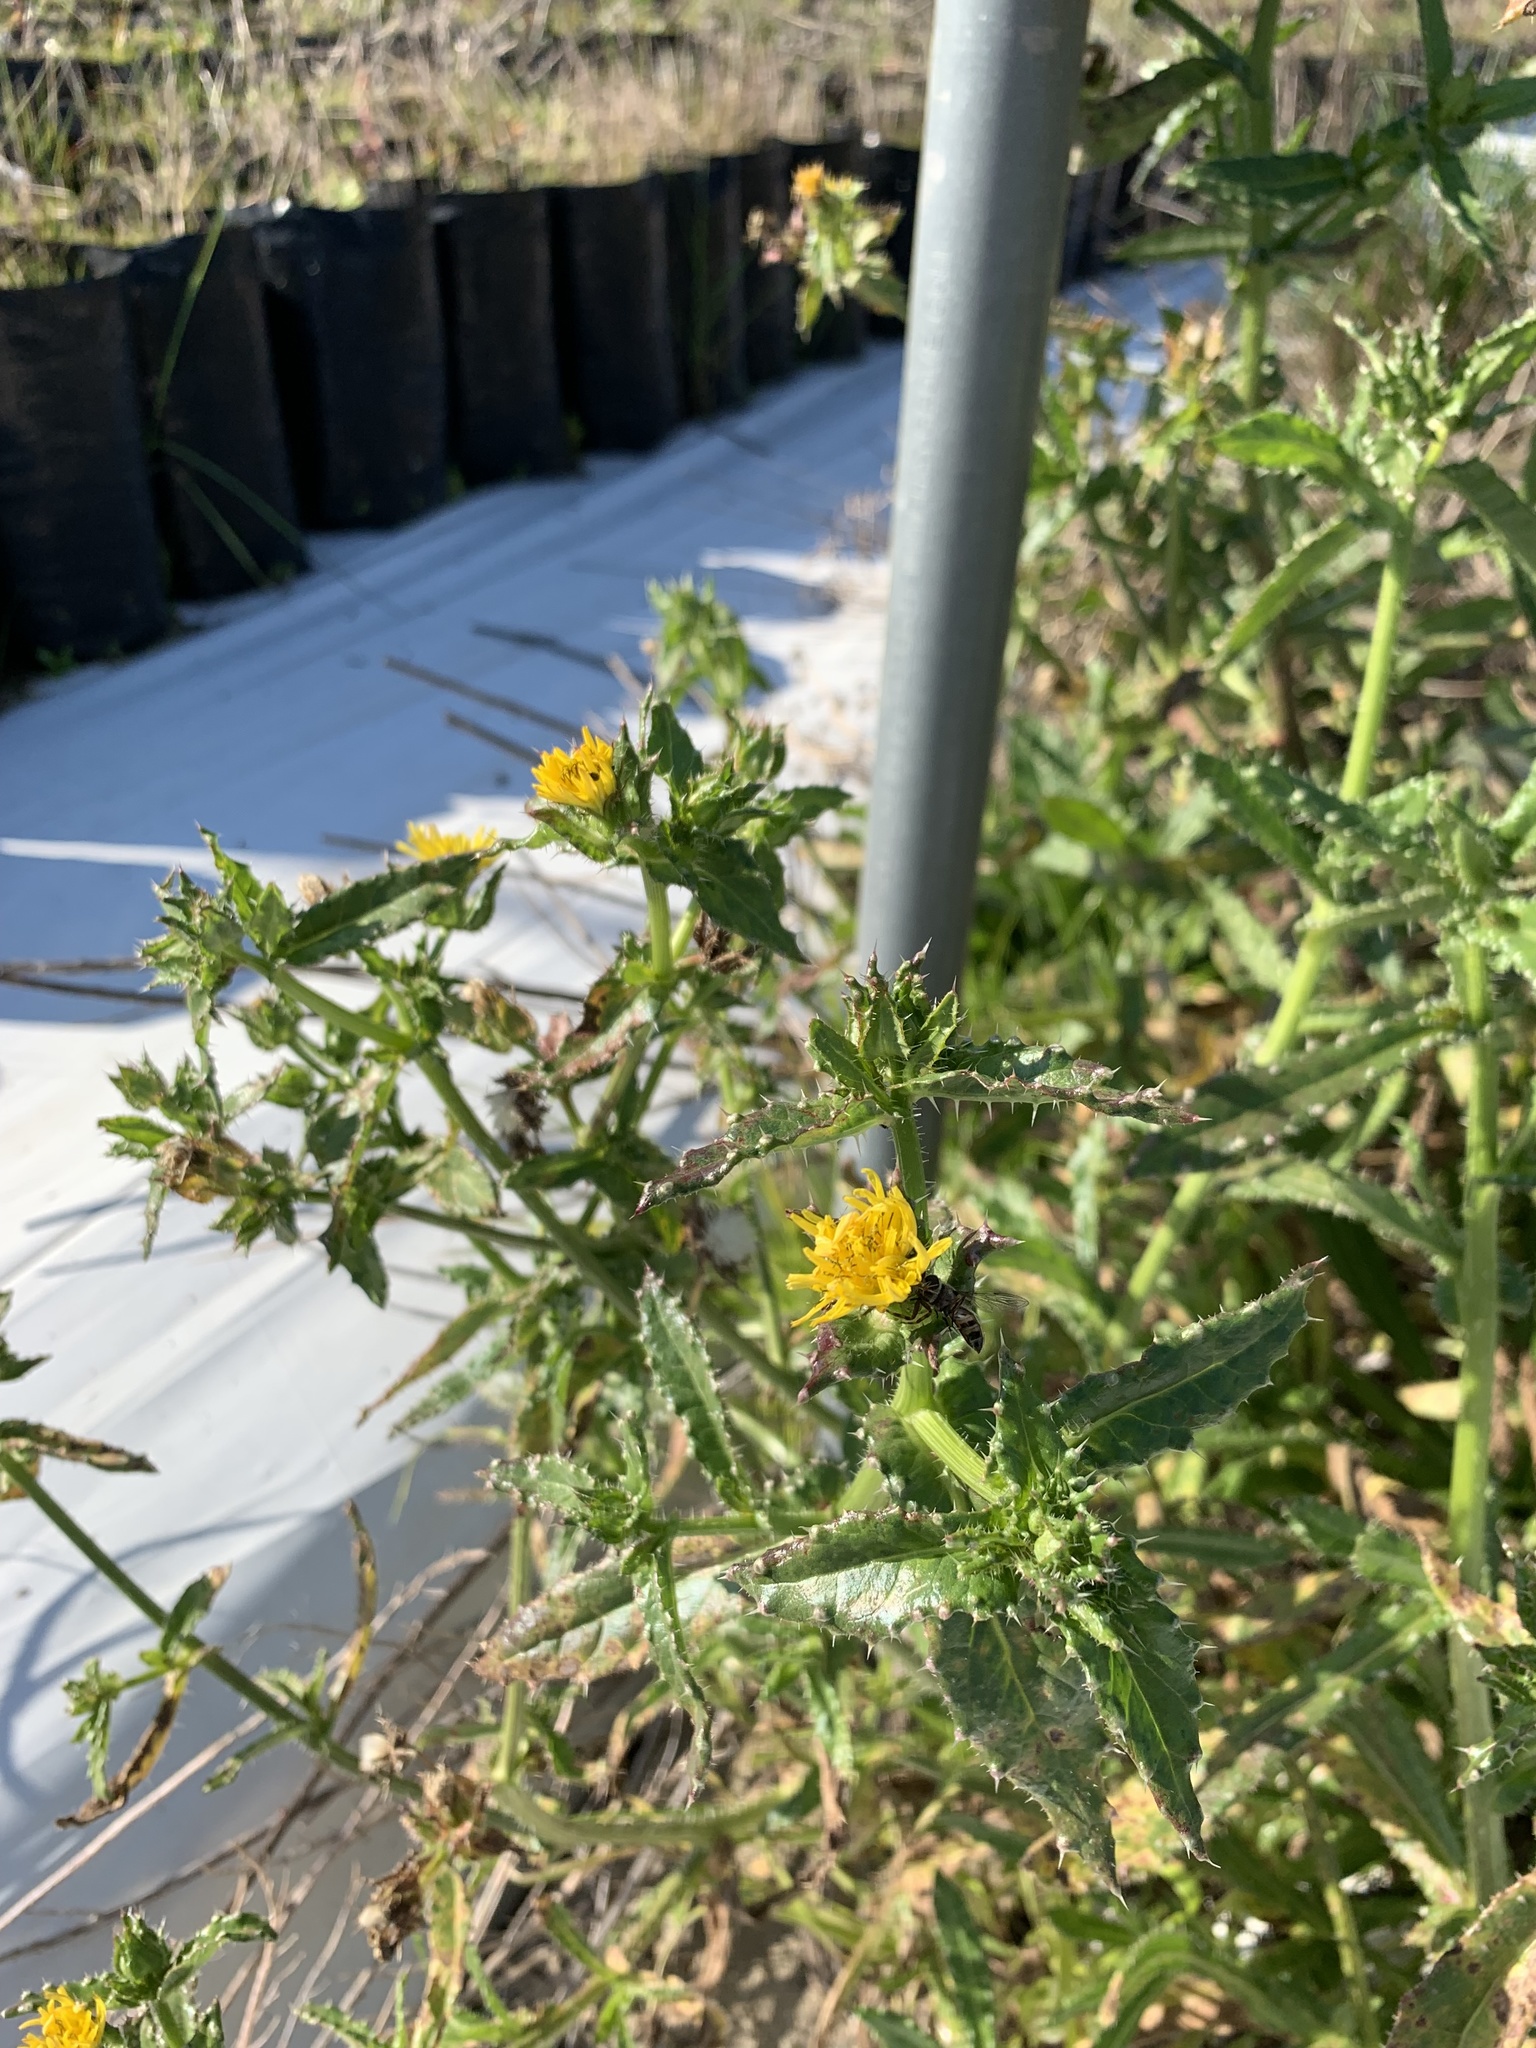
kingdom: Plantae
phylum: Tracheophyta
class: Magnoliopsida
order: Asterales
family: Asteraceae
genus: Helminthotheca
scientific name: Helminthotheca echioides
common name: Ox-tongue
